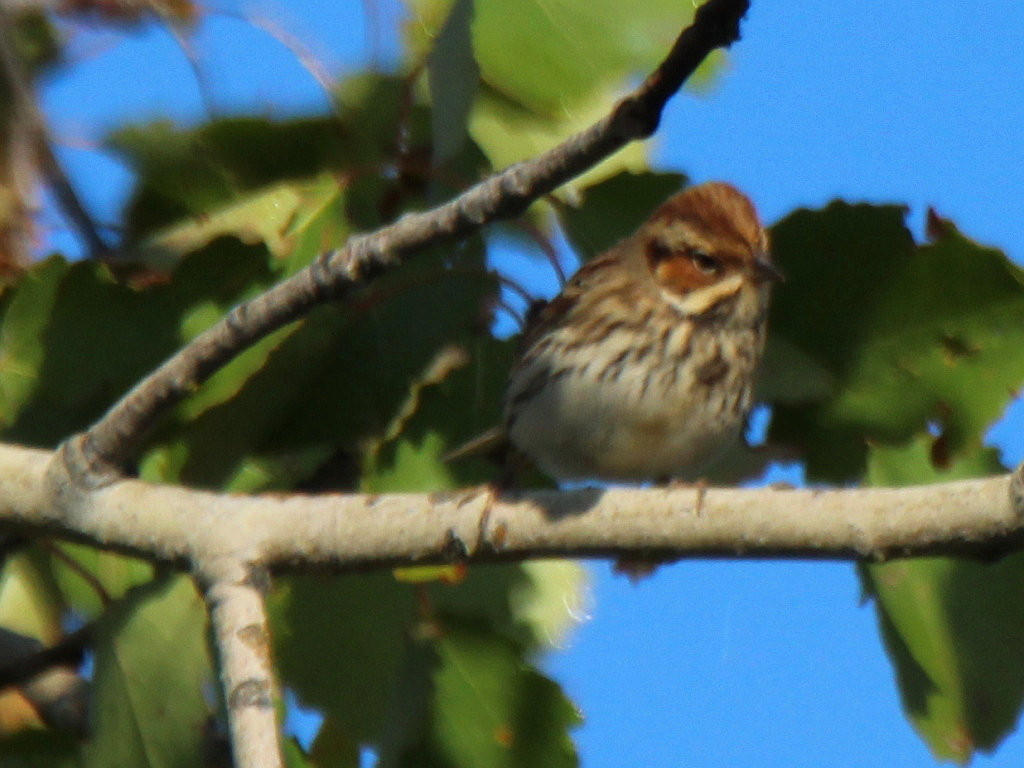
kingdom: Animalia
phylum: Chordata
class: Aves
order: Passeriformes
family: Emberizidae
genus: Emberiza
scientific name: Emberiza pusilla
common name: Little bunting
